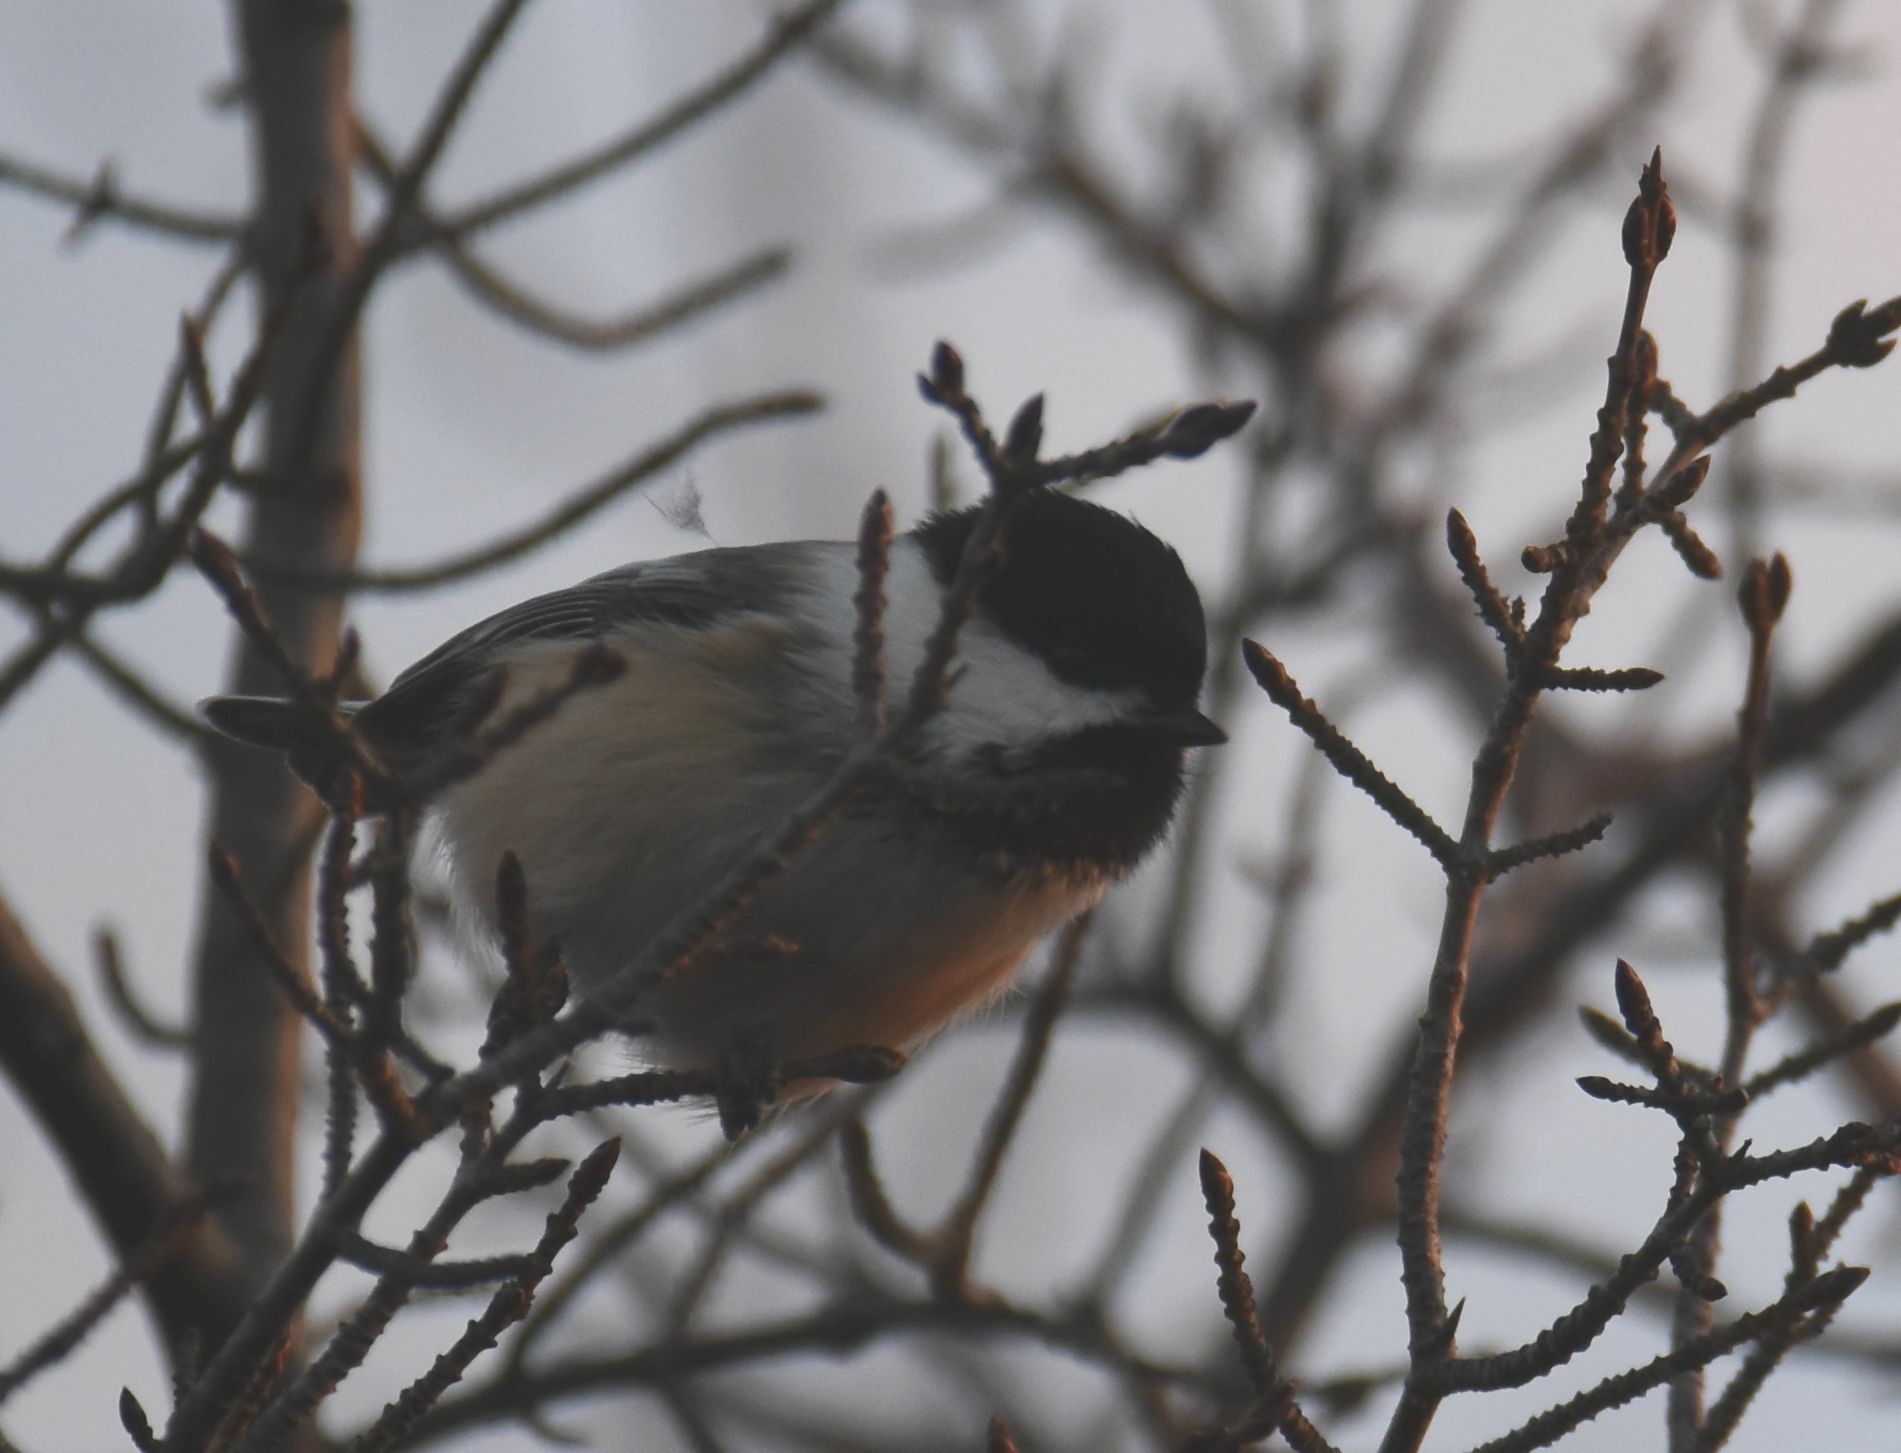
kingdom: Animalia
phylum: Chordata
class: Aves
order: Passeriformes
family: Paridae
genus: Poecile
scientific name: Poecile atricapillus
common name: Black-capped chickadee
